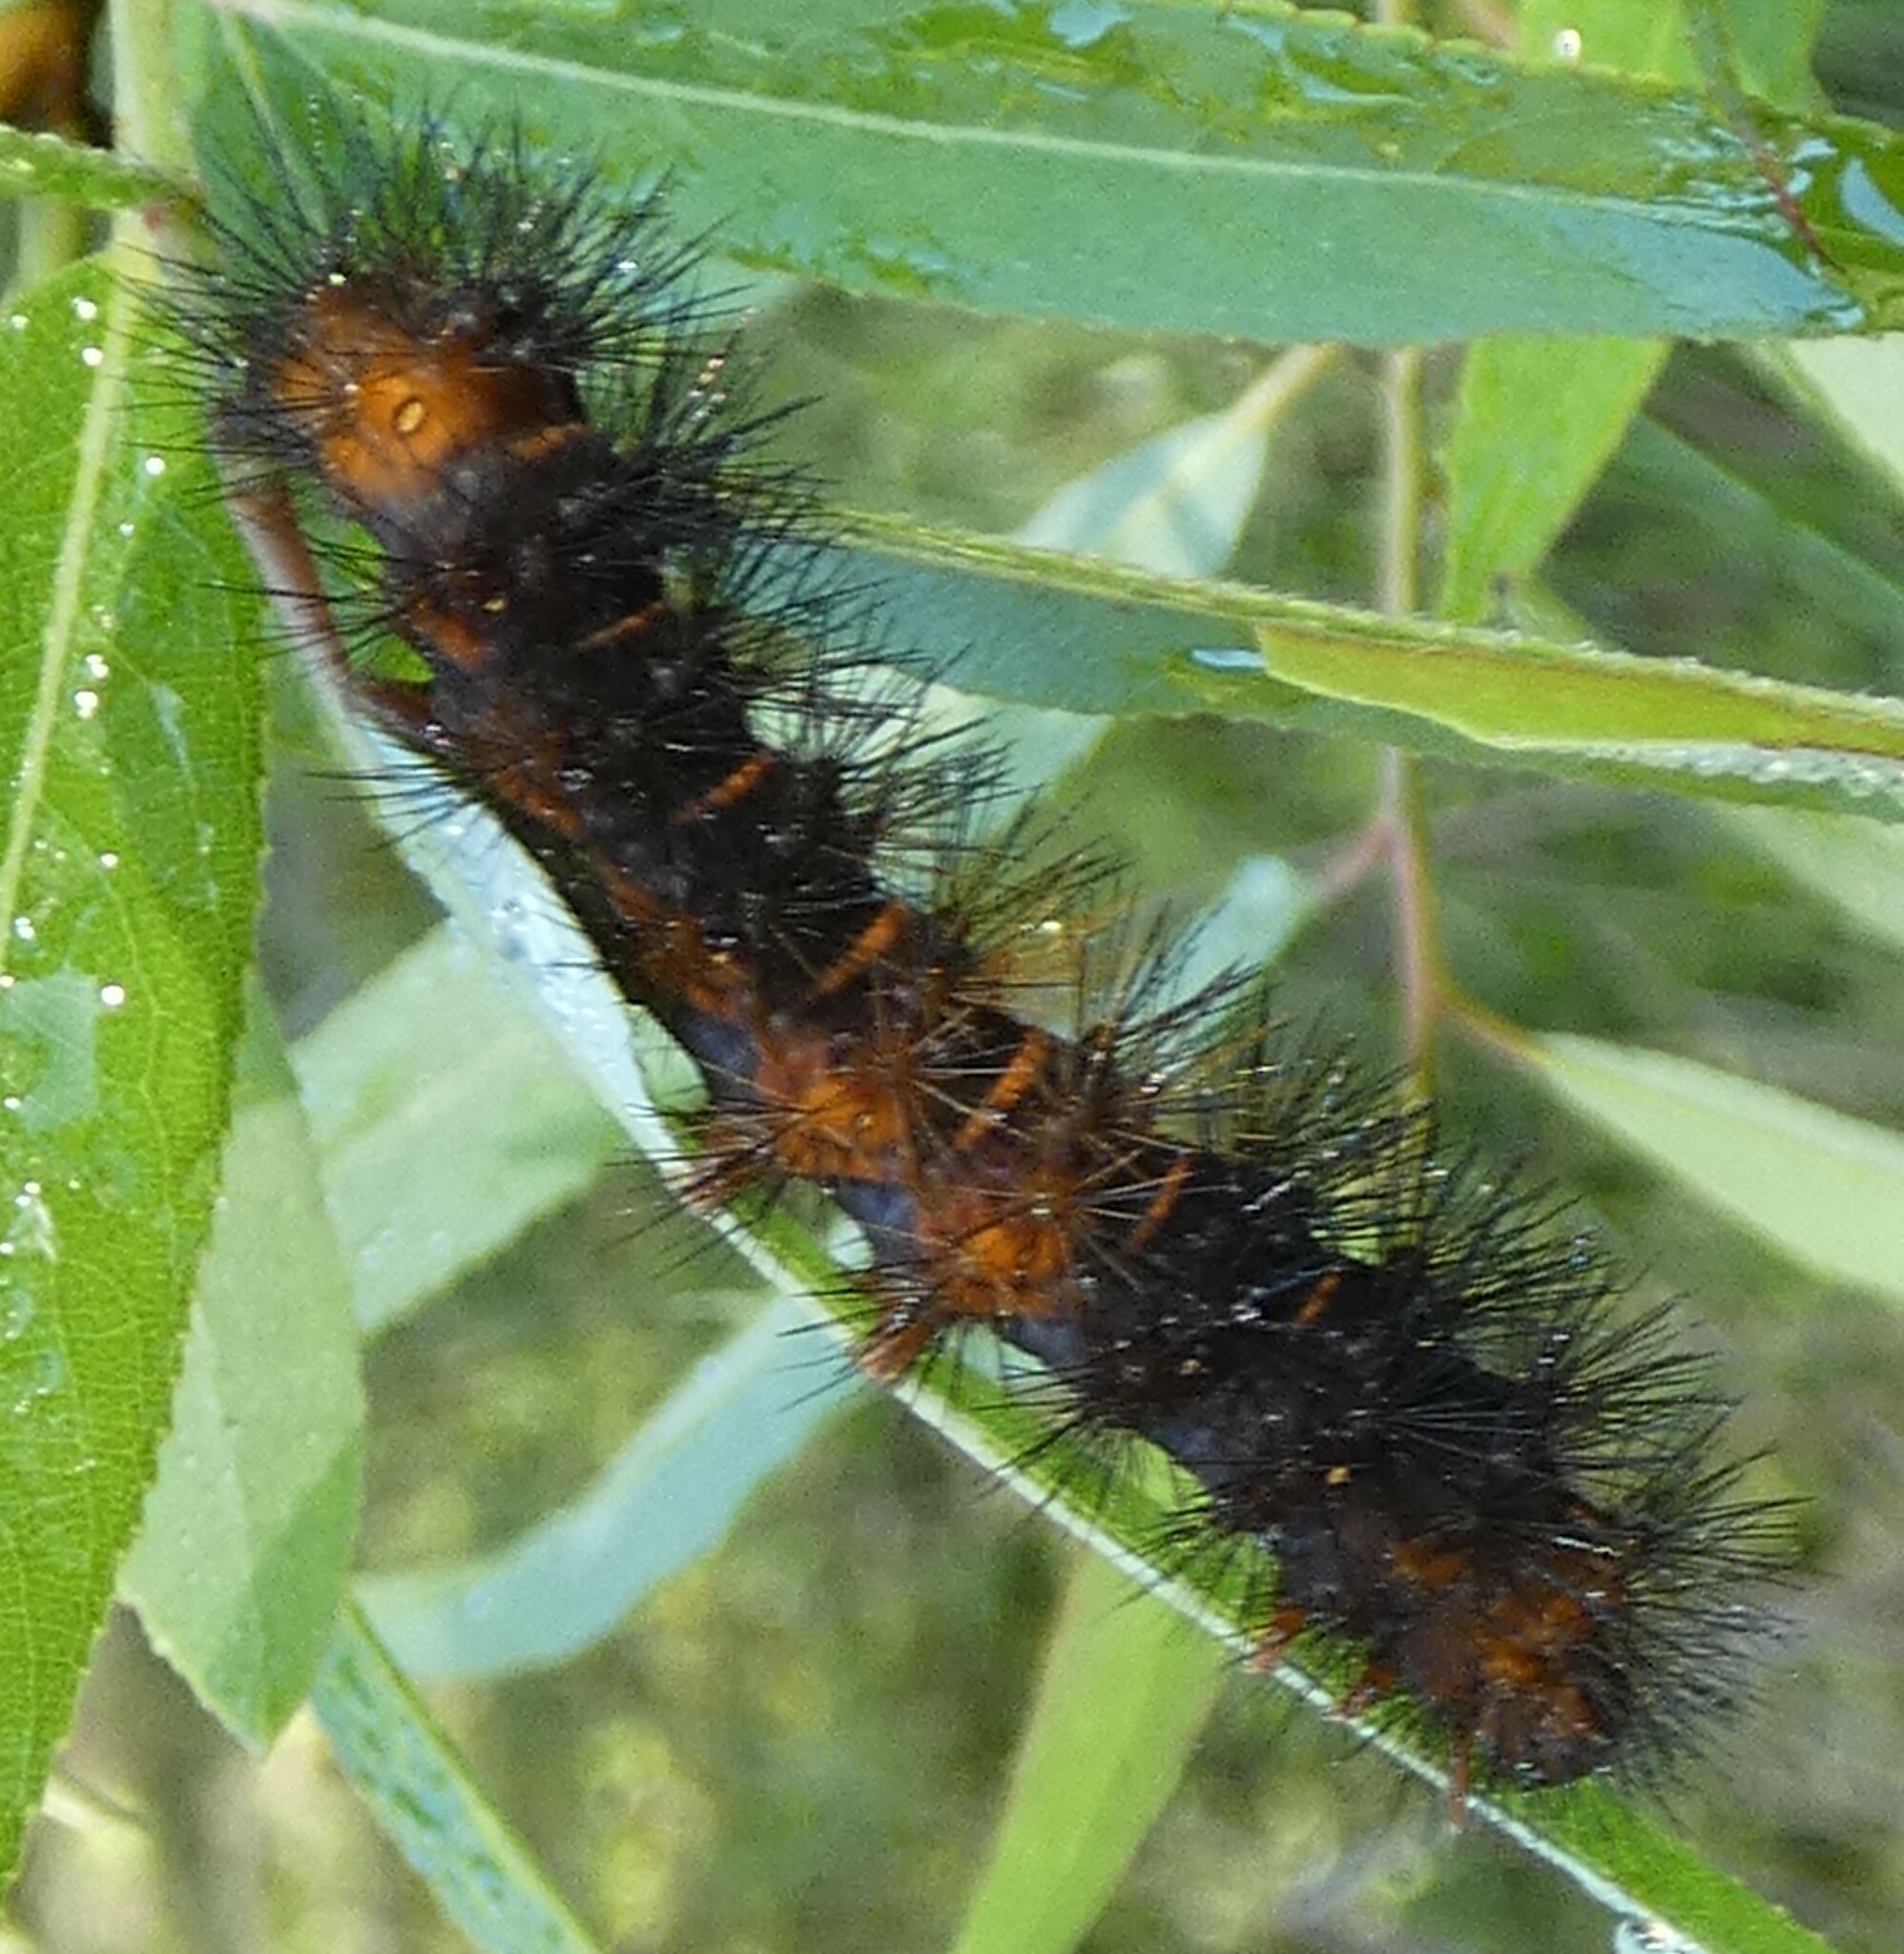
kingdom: Animalia
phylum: Arthropoda
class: Insecta
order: Lepidoptera
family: Erebidae
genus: Hypercompe
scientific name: Hypercompe scribonia
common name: Giant leopard moth
